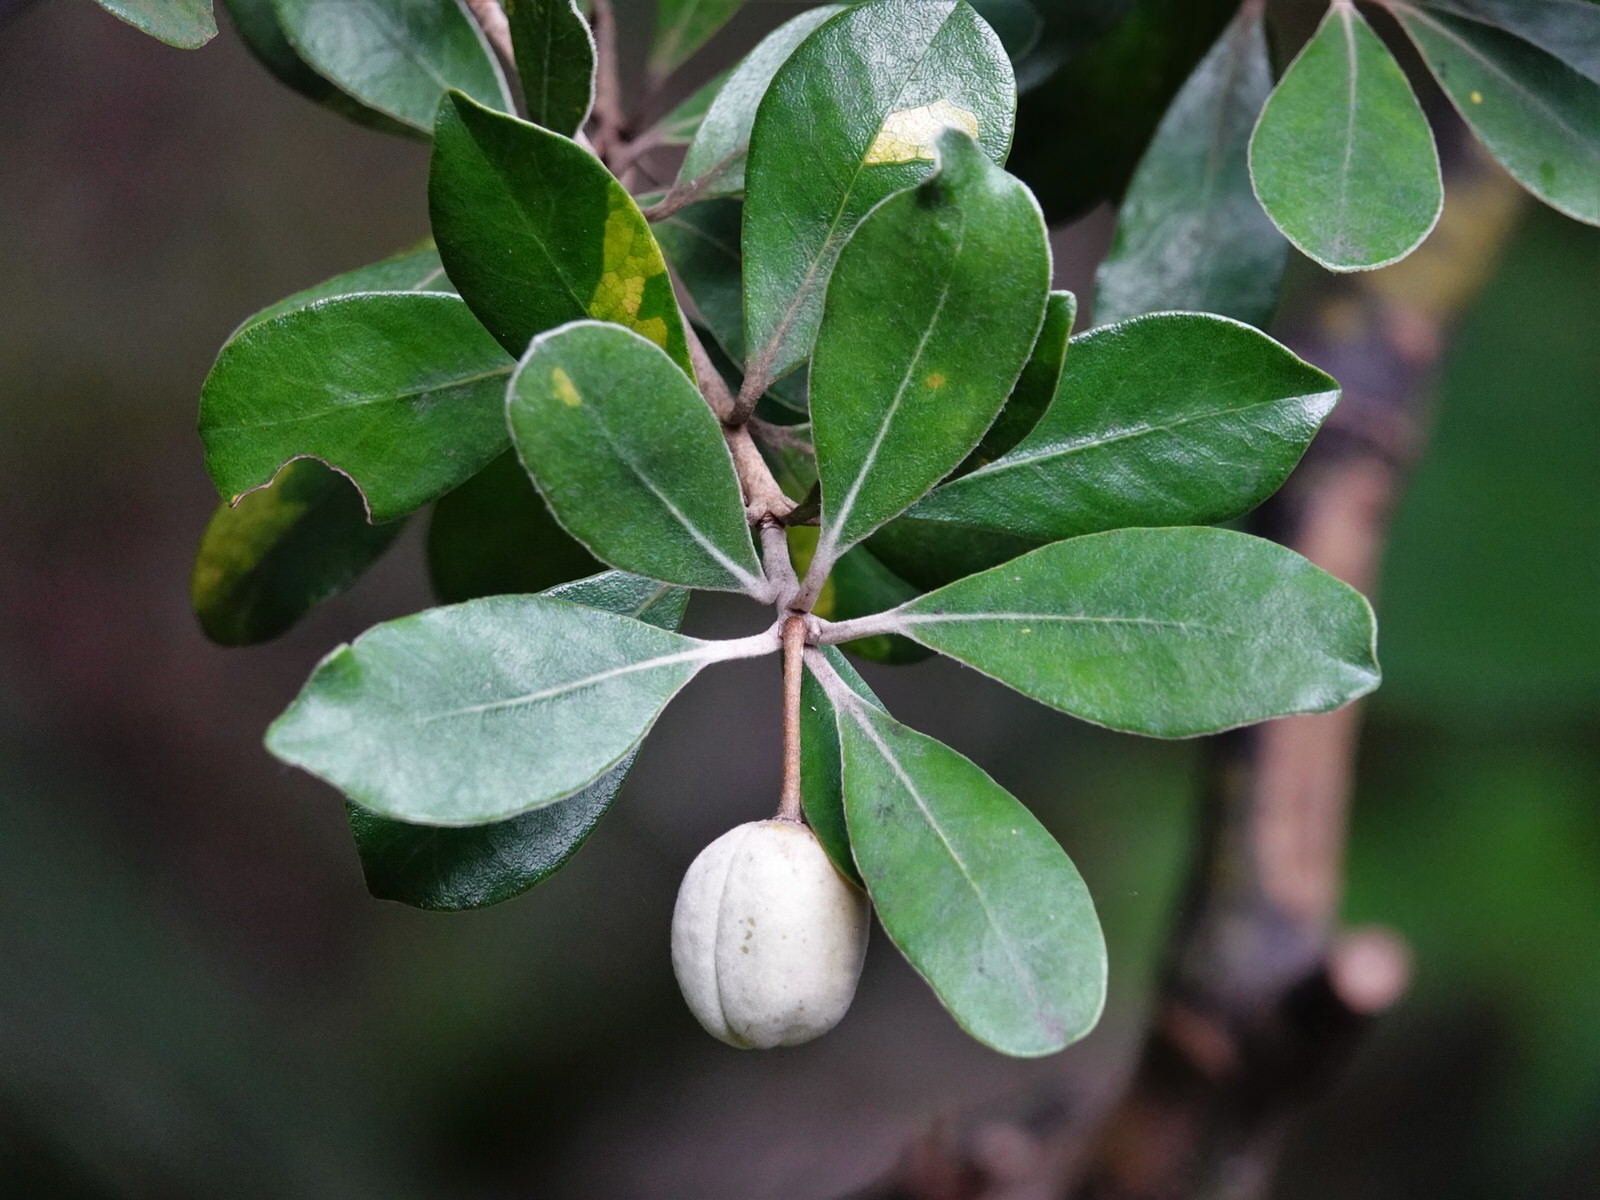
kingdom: Plantae
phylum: Tracheophyta
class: Magnoliopsida
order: Apiales
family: Pittosporaceae
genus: Pittosporum
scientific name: Pittosporum crassifolium
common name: Karo
